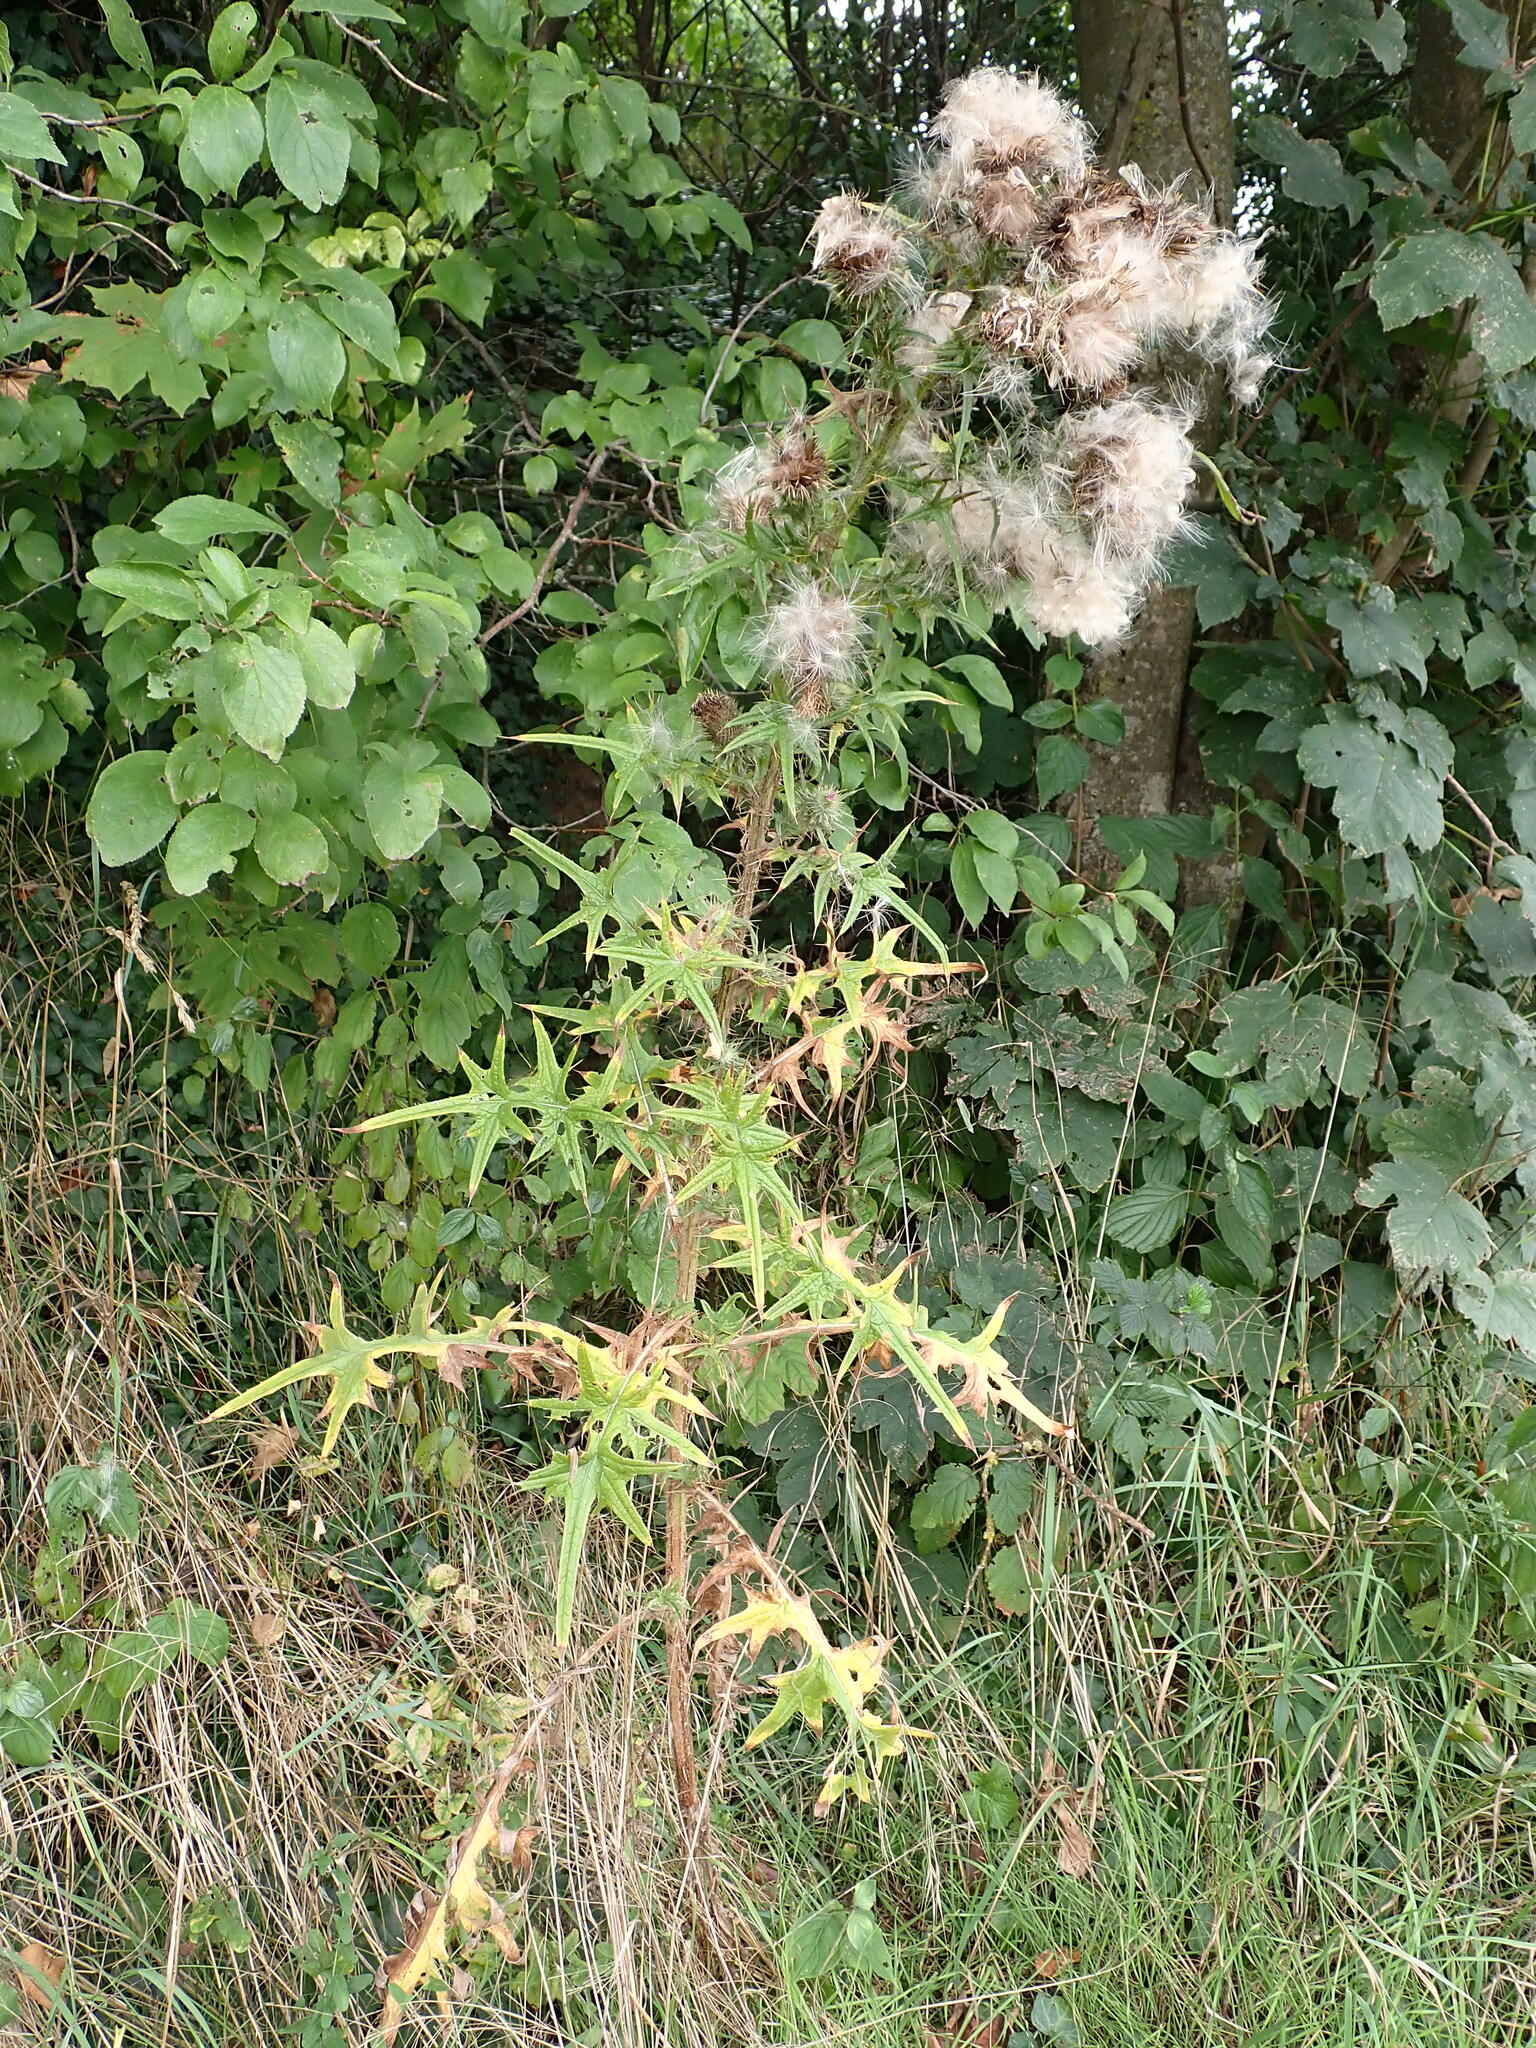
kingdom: Plantae
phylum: Tracheophyta
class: Magnoliopsida
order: Asterales
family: Asteraceae
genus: Cirsium
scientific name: Cirsium vulgare
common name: Bull thistle
